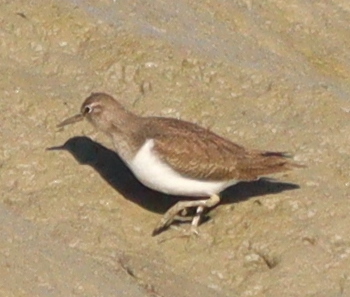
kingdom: Animalia
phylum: Chordata
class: Aves
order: Charadriiformes
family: Scolopacidae
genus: Actitis
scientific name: Actitis hypoleucos
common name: Common sandpiper
